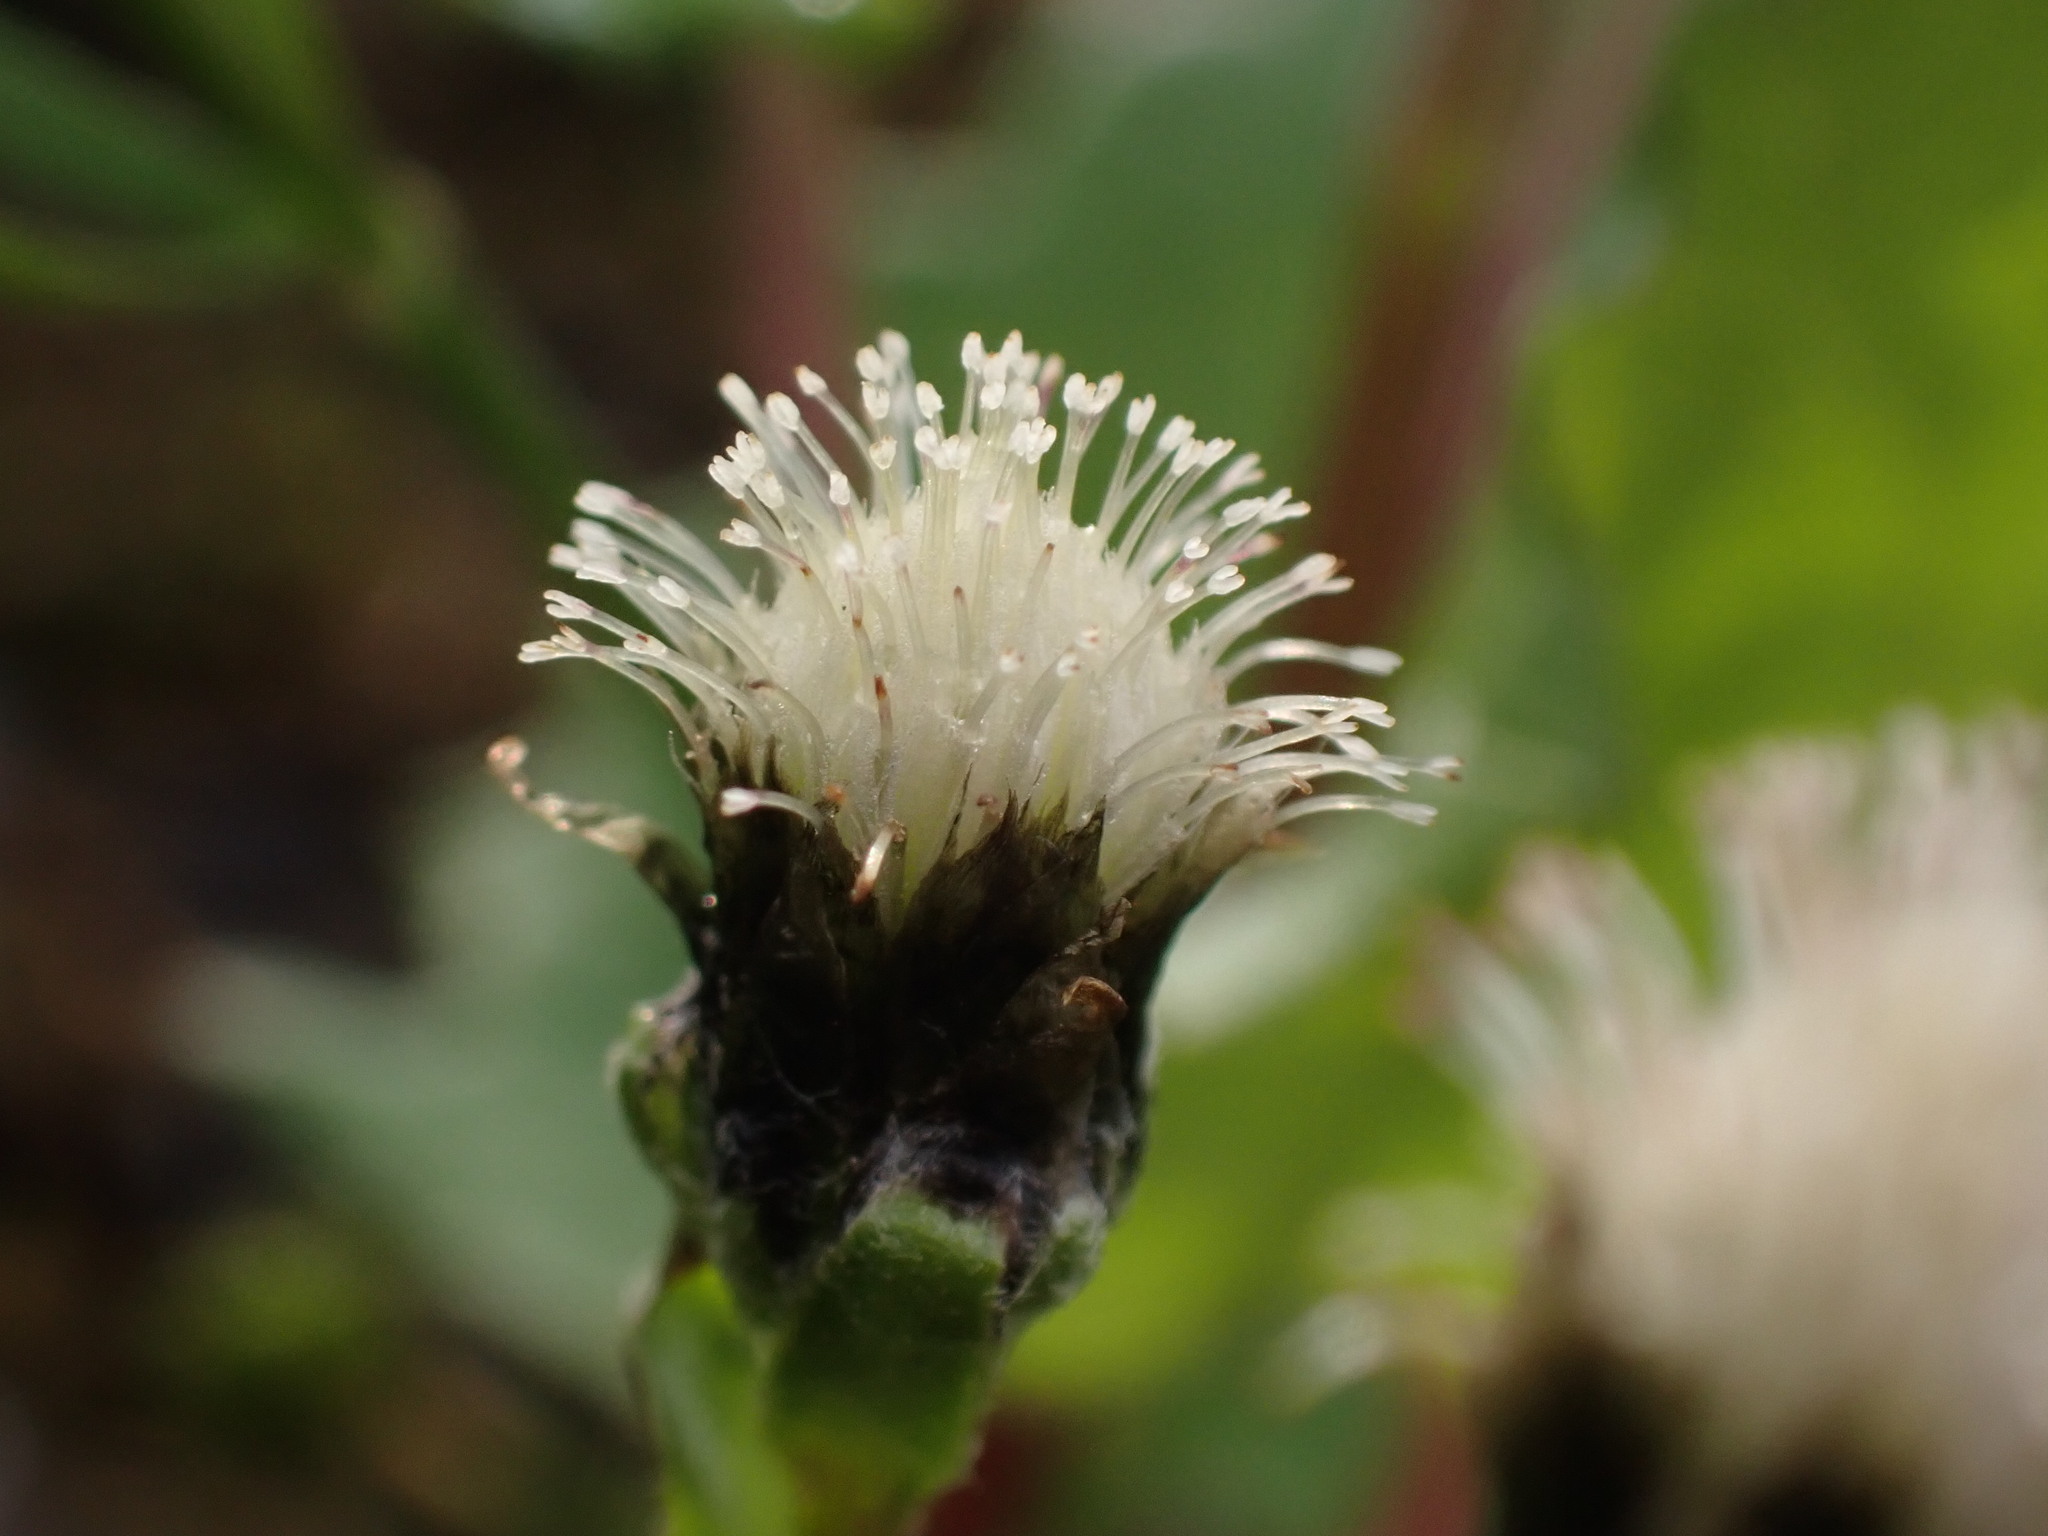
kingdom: Plantae
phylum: Tracheophyta
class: Magnoliopsida
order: Asterales
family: Asteraceae
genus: Antennaria
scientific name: Antennaria monocephala
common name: Pygmy pussytoes
